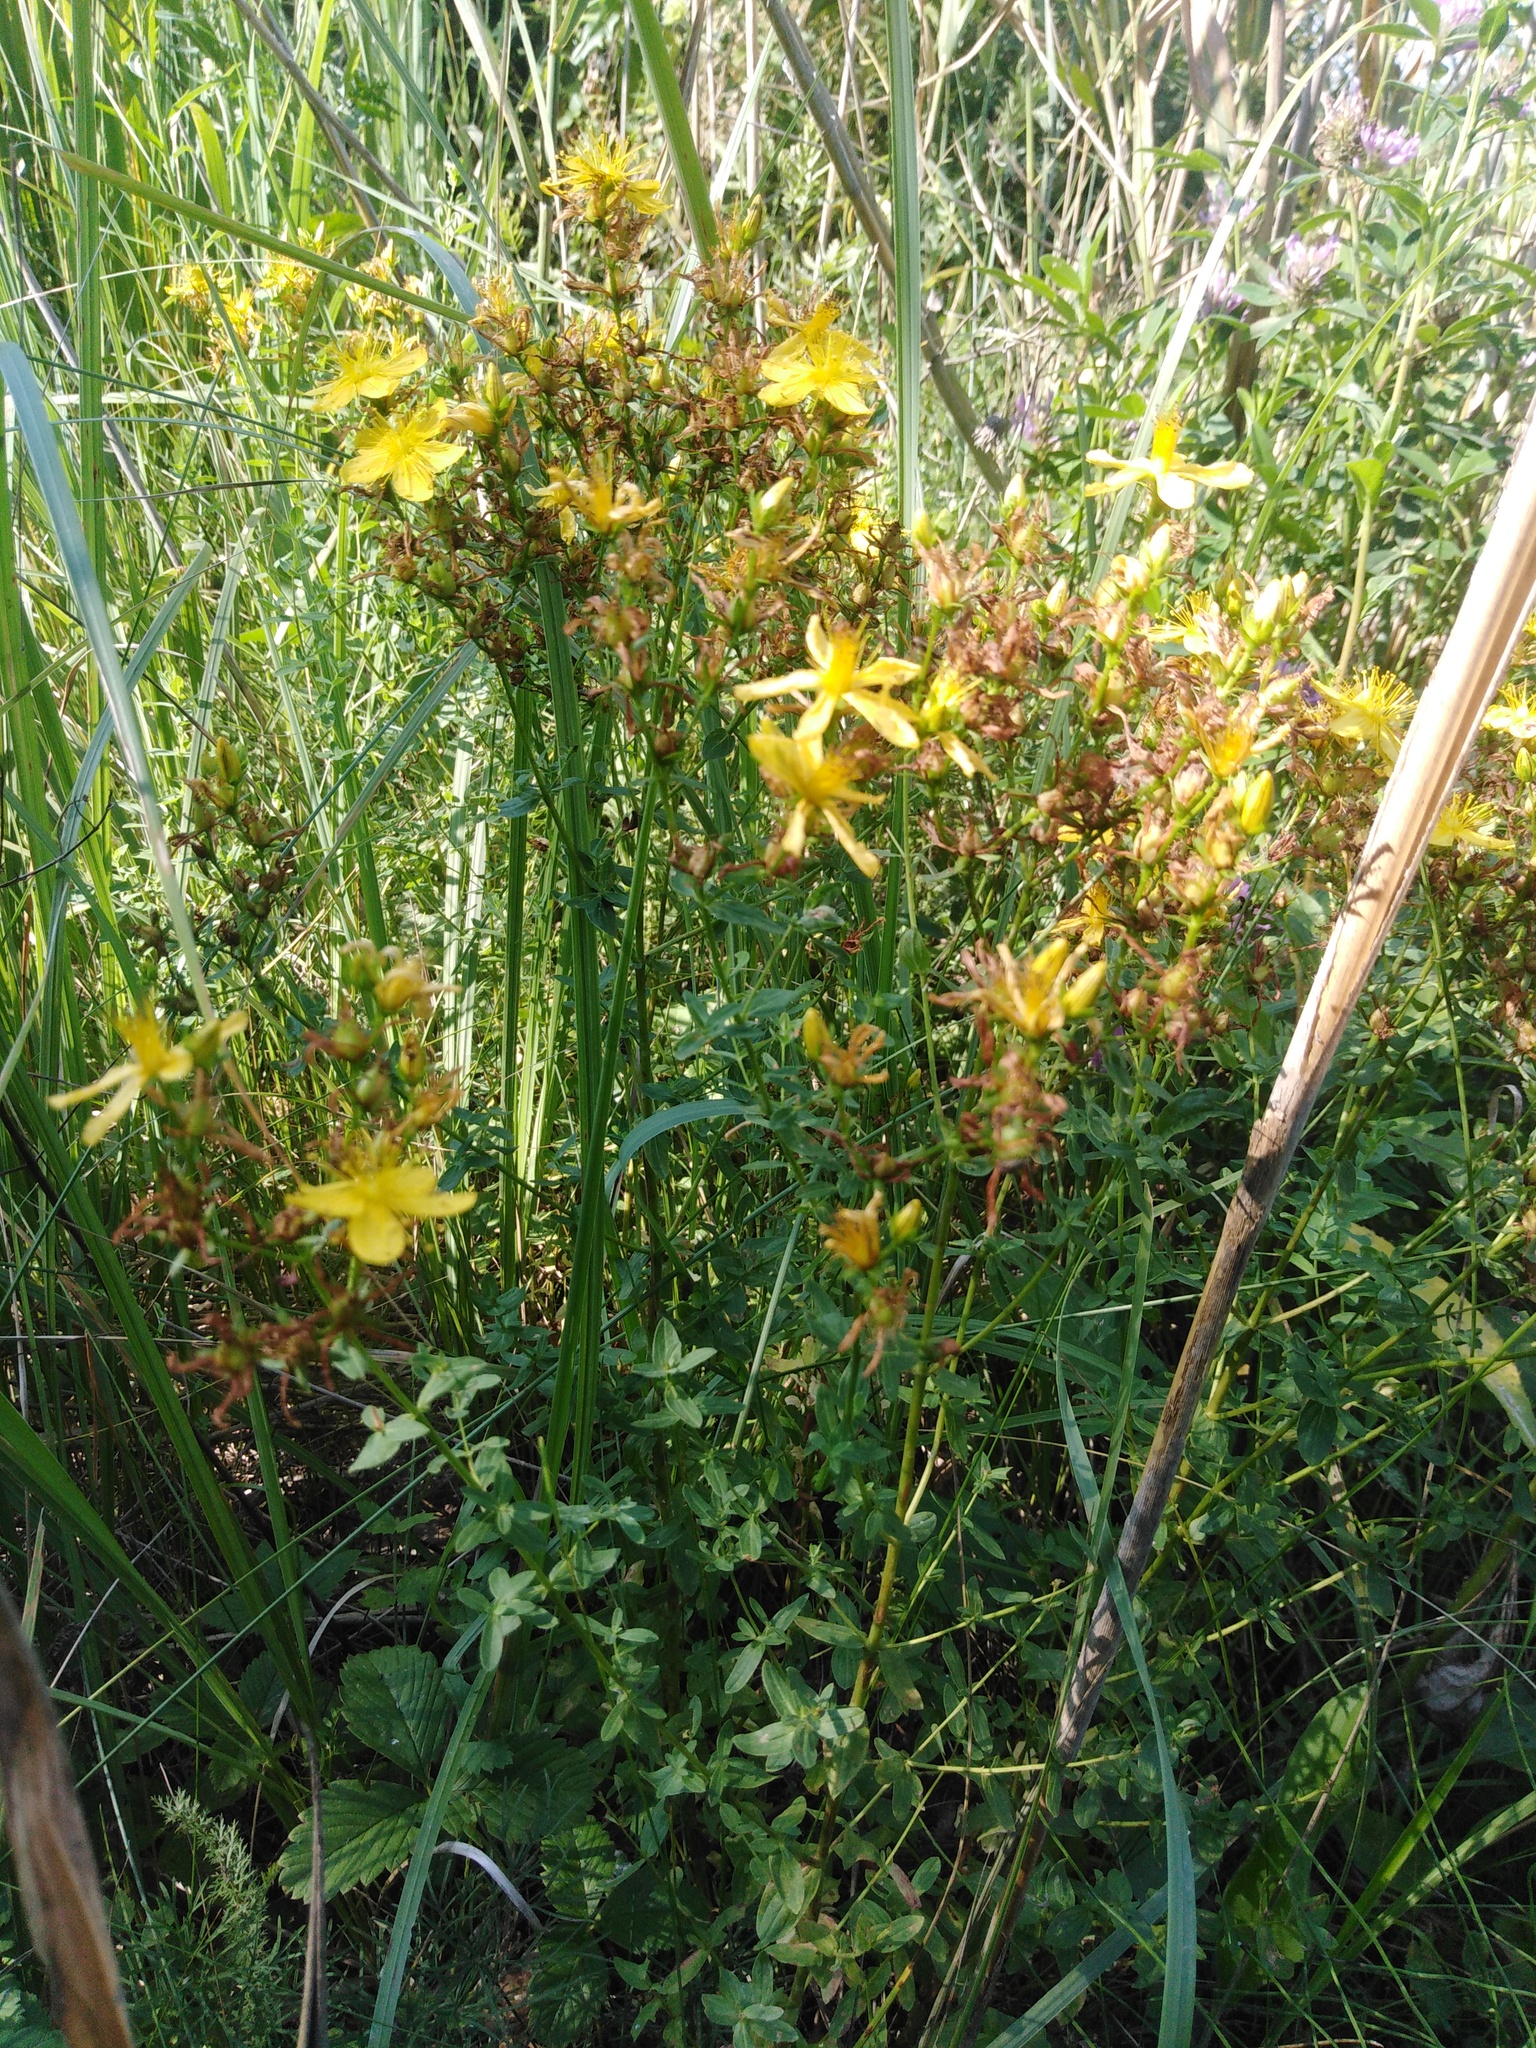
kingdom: Plantae
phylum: Tracheophyta
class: Magnoliopsida
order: Malpighiales
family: Hypericaceae
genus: Hypericum
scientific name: Hypericum perforatum
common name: Common st. johnswort
